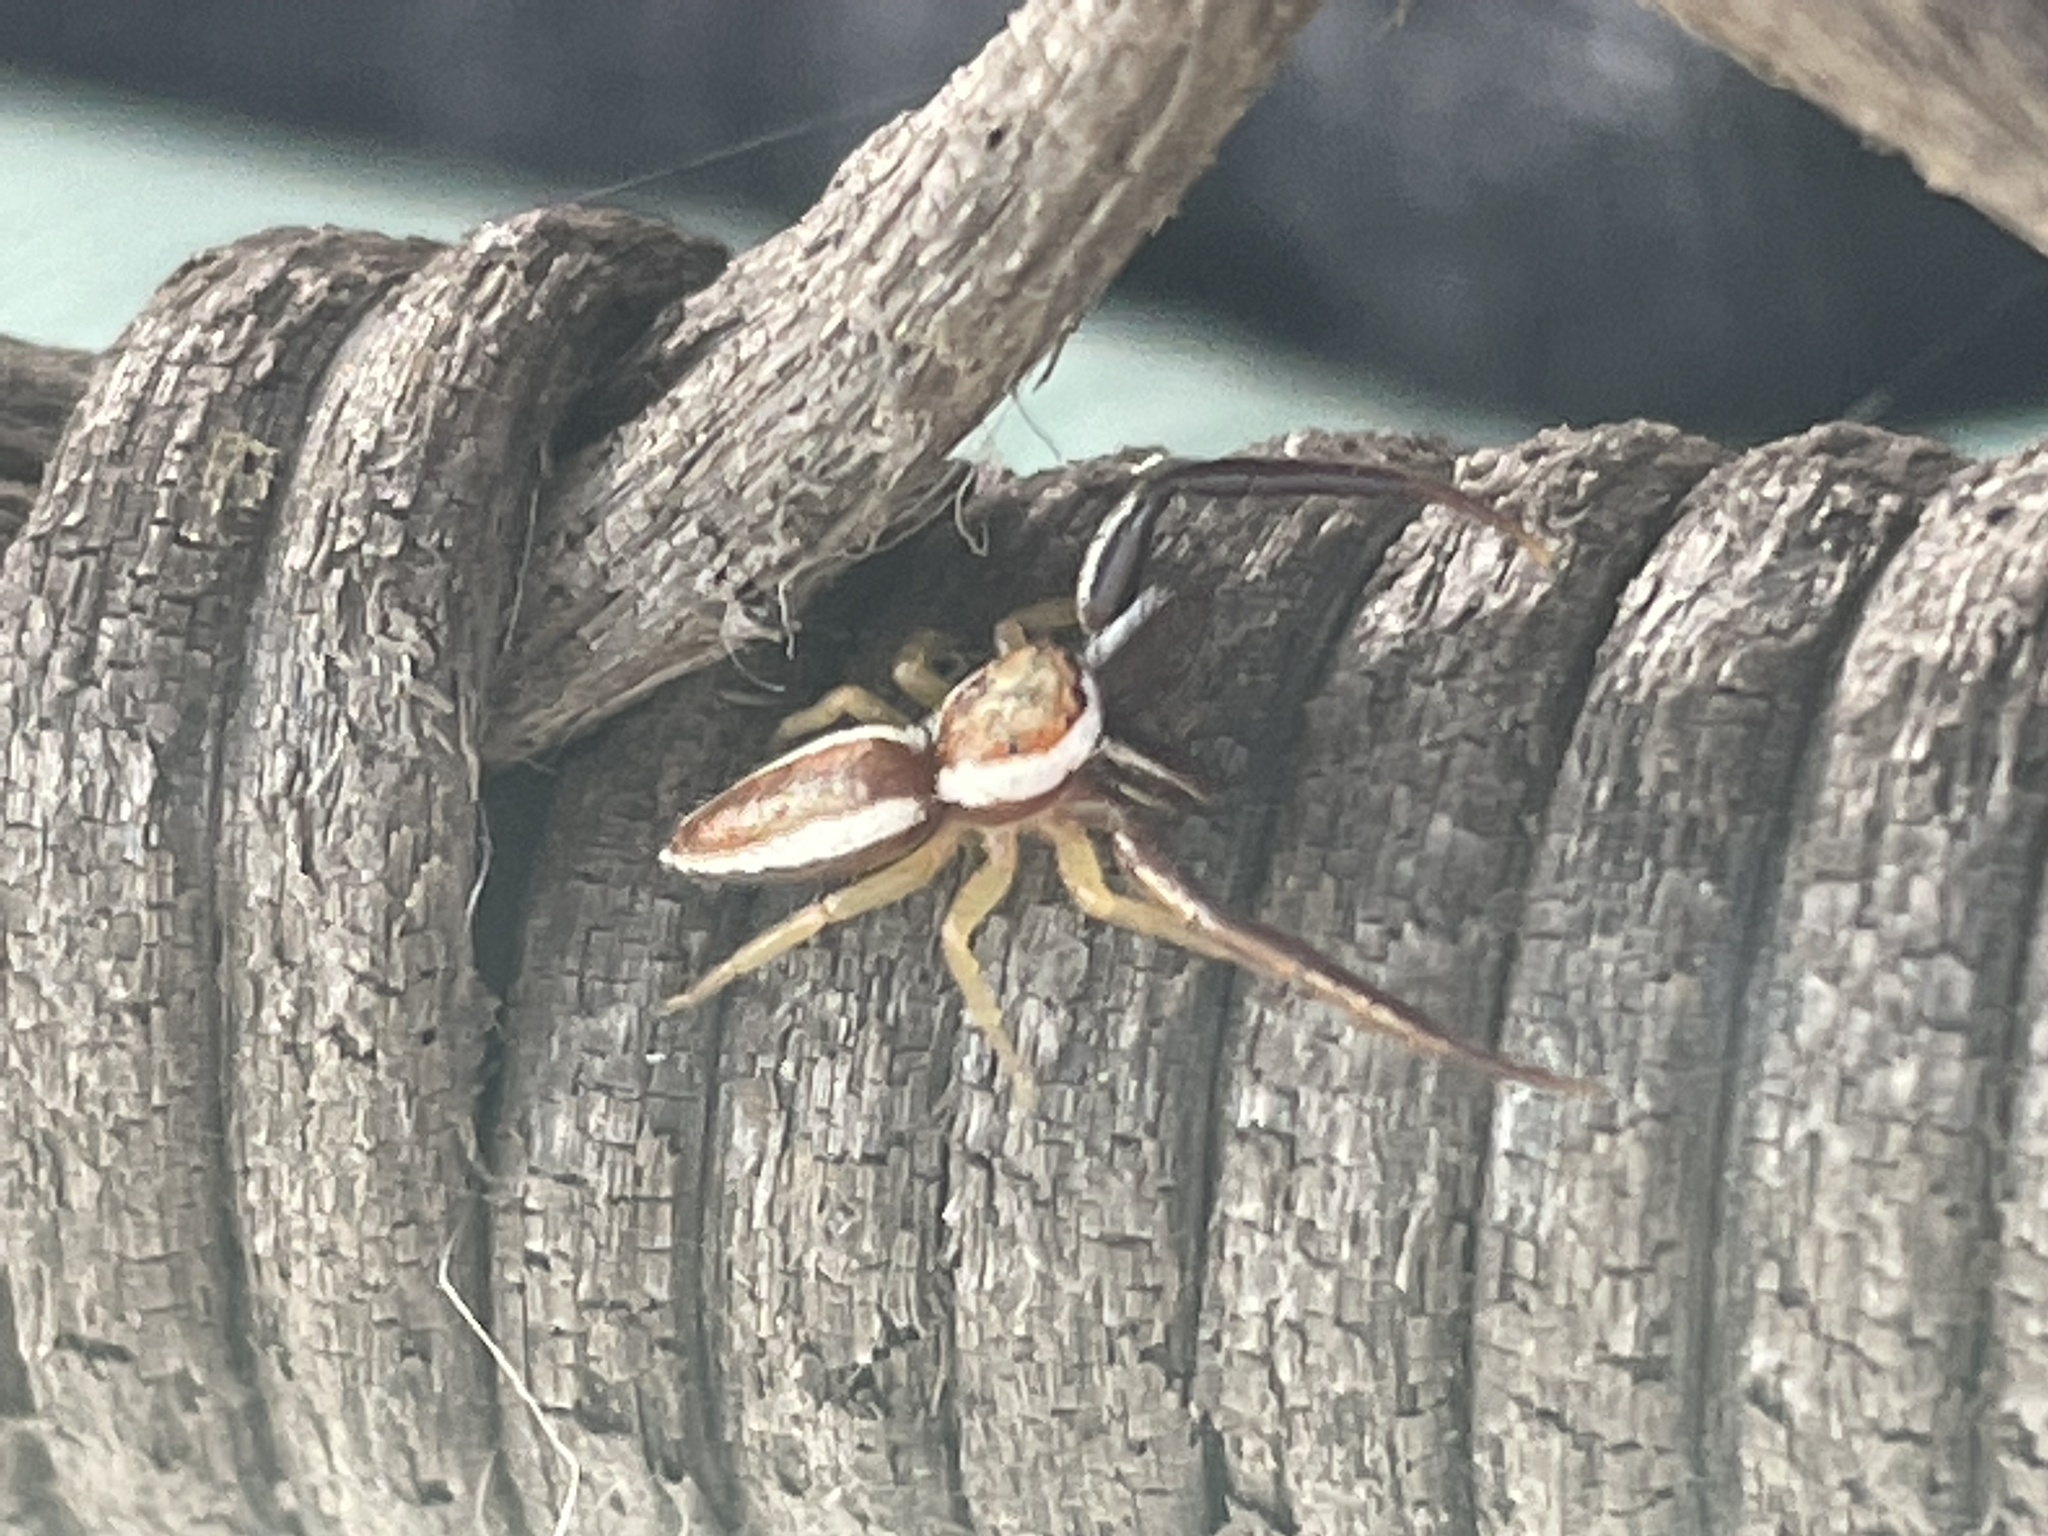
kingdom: Animalia
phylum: Arthropoda
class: Arachnida
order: Araneae
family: Salticidae
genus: Hentzia
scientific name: Hentzia palmarum
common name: Common hentz jumping spider
